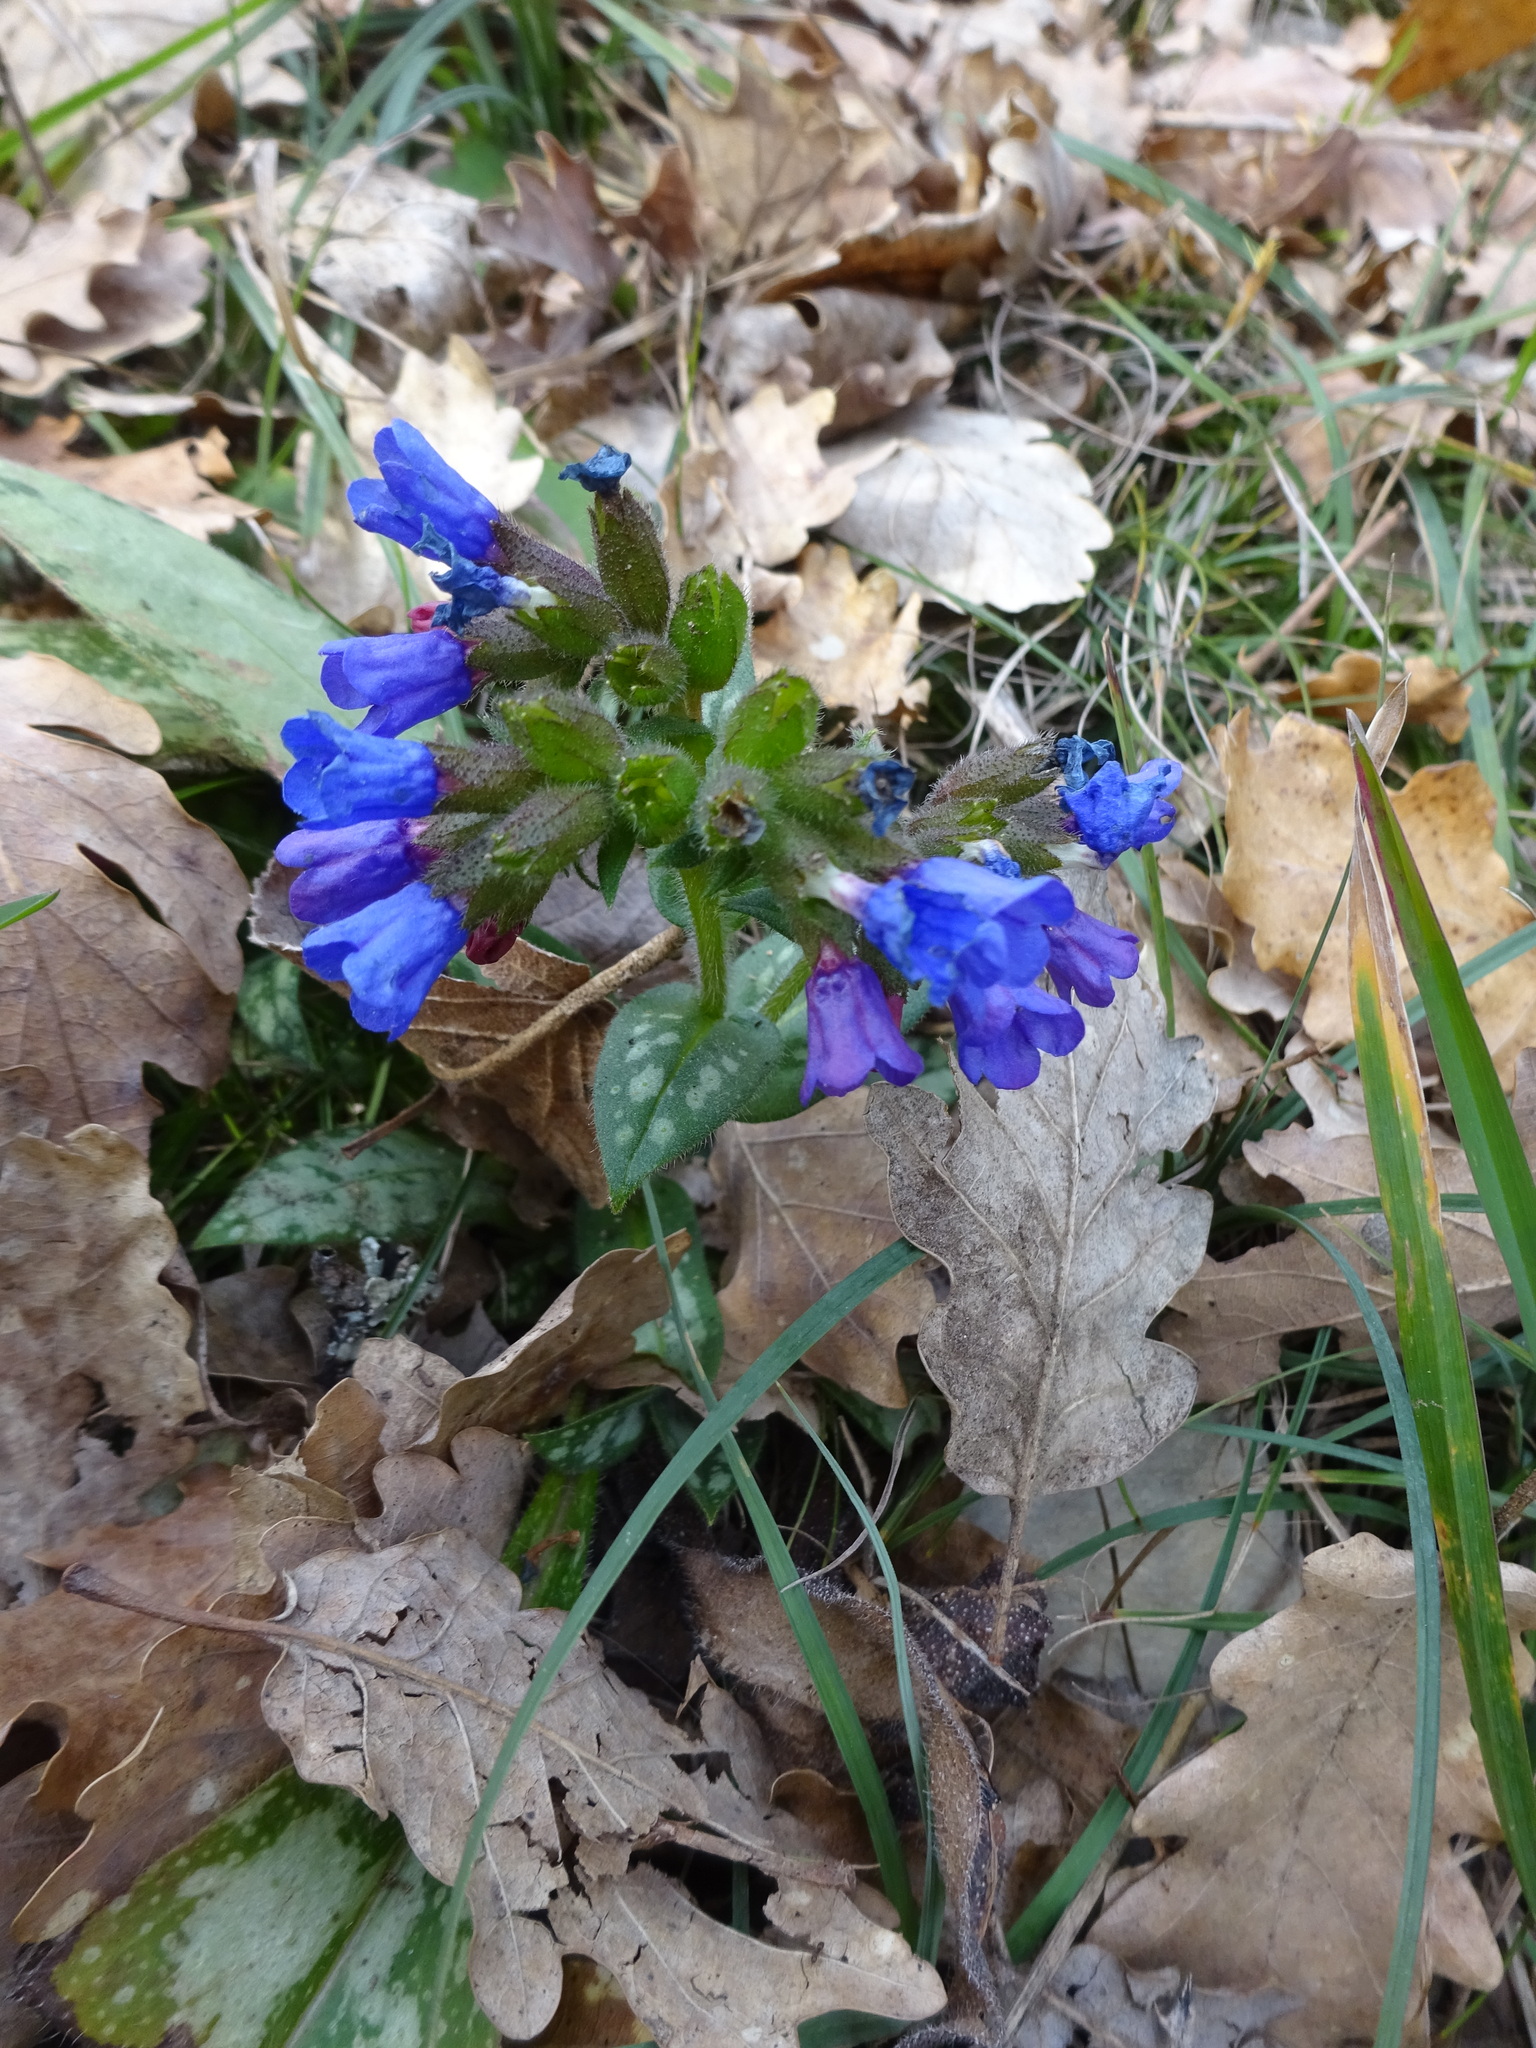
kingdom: Plantae
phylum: Tracheophyta
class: Magnoliopsida
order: Boraginales
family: Boraginaceae
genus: Pulmonaria
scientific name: Pulmonaria officinalis
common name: Lungwort
